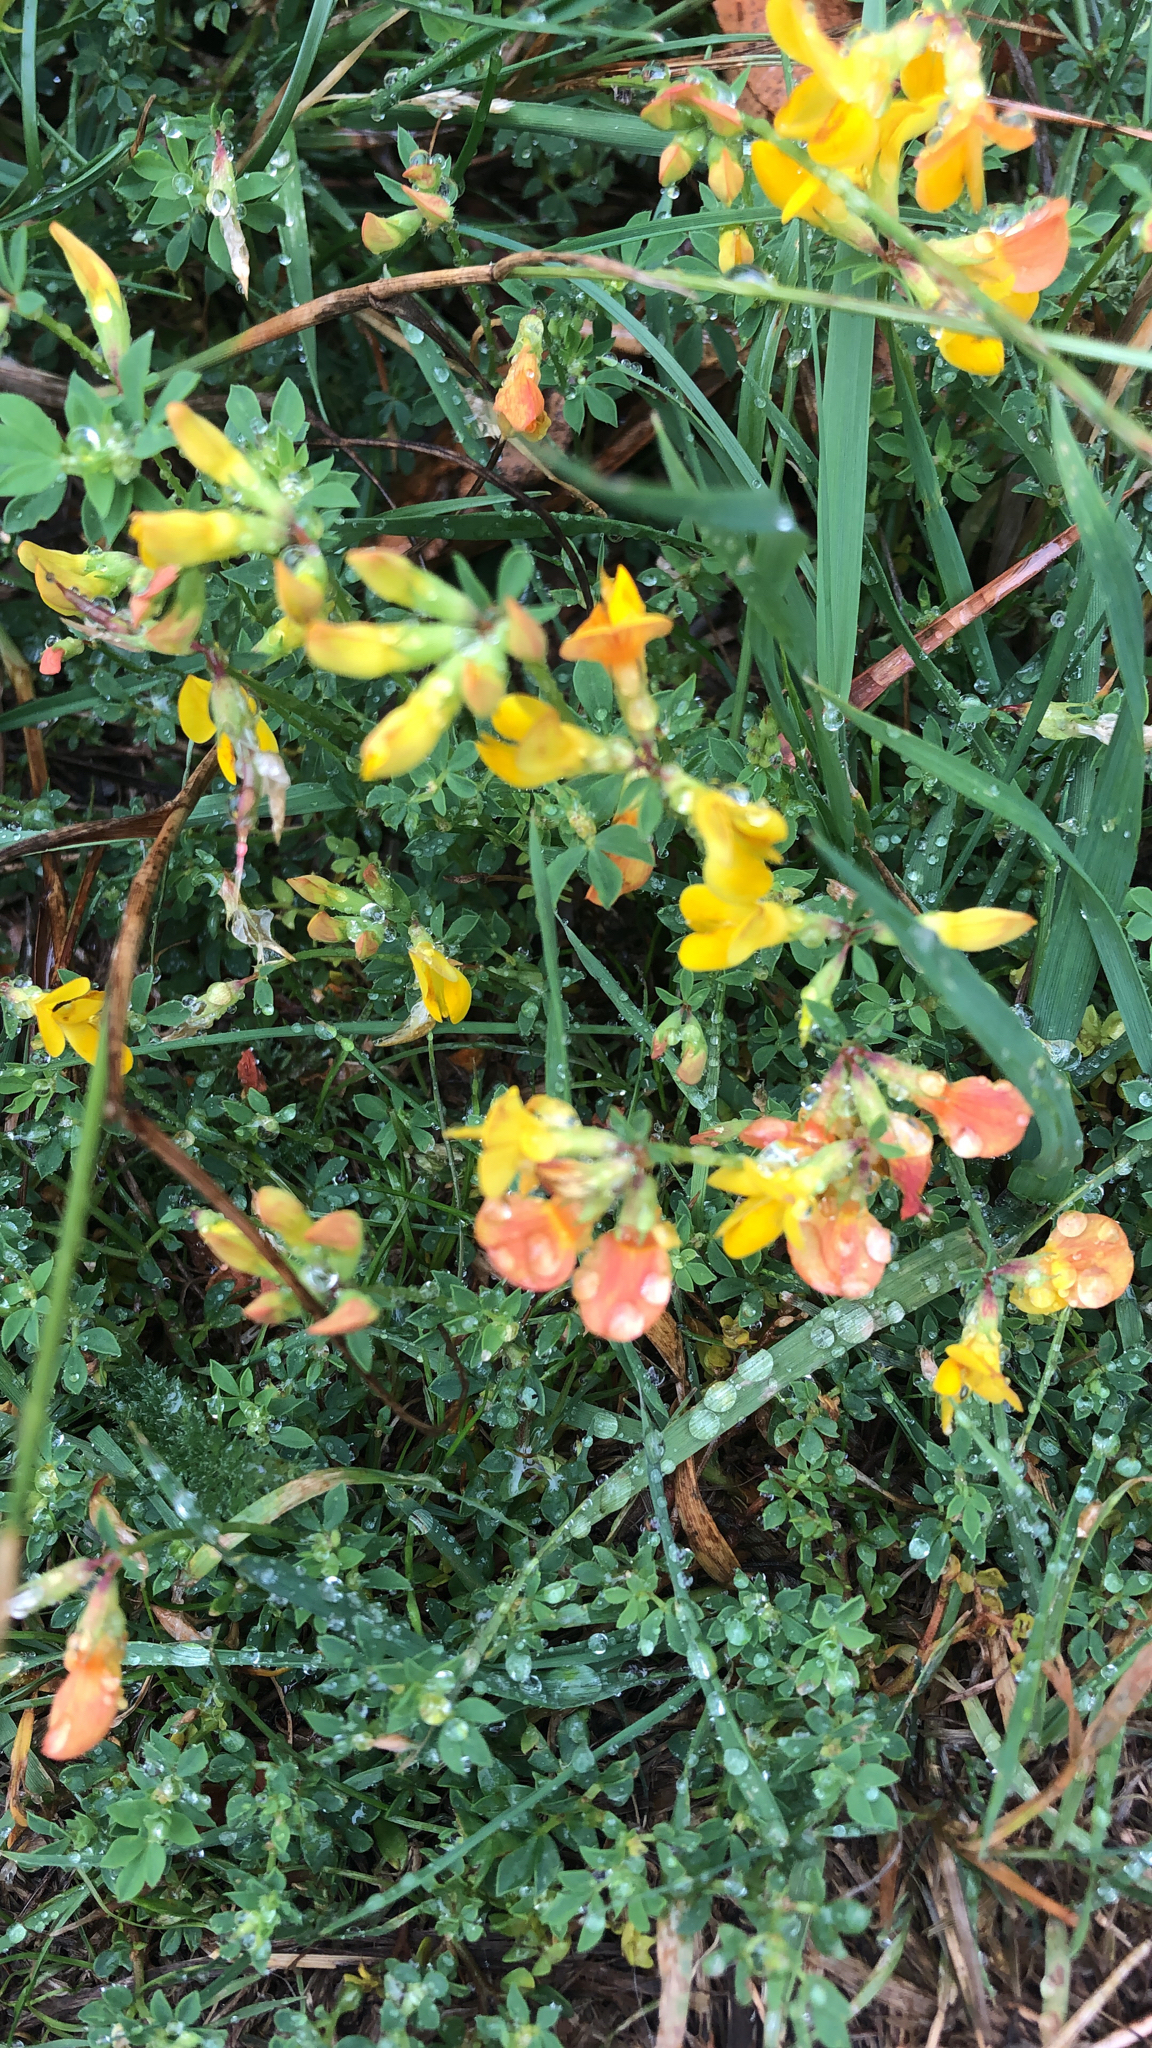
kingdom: Plantae
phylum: Tracheophyta
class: Magnoliopsida
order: Fabales
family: Fabaceae
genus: Lotus
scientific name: Lotus corniculatus
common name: Common bird's-foot-trefoil
